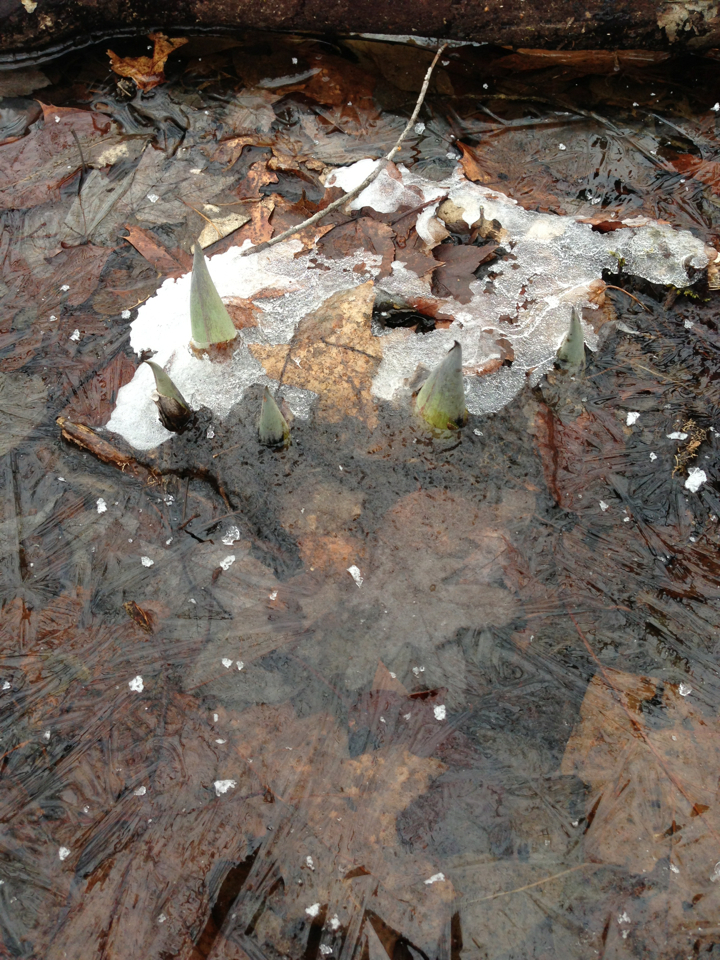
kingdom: Plantae
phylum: Tracheophyta
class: Liliopsida
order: Alismatales
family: Araceae
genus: Symplocarpus
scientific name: Symplocarpus foetidus
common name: Eastern skunk cabbage
